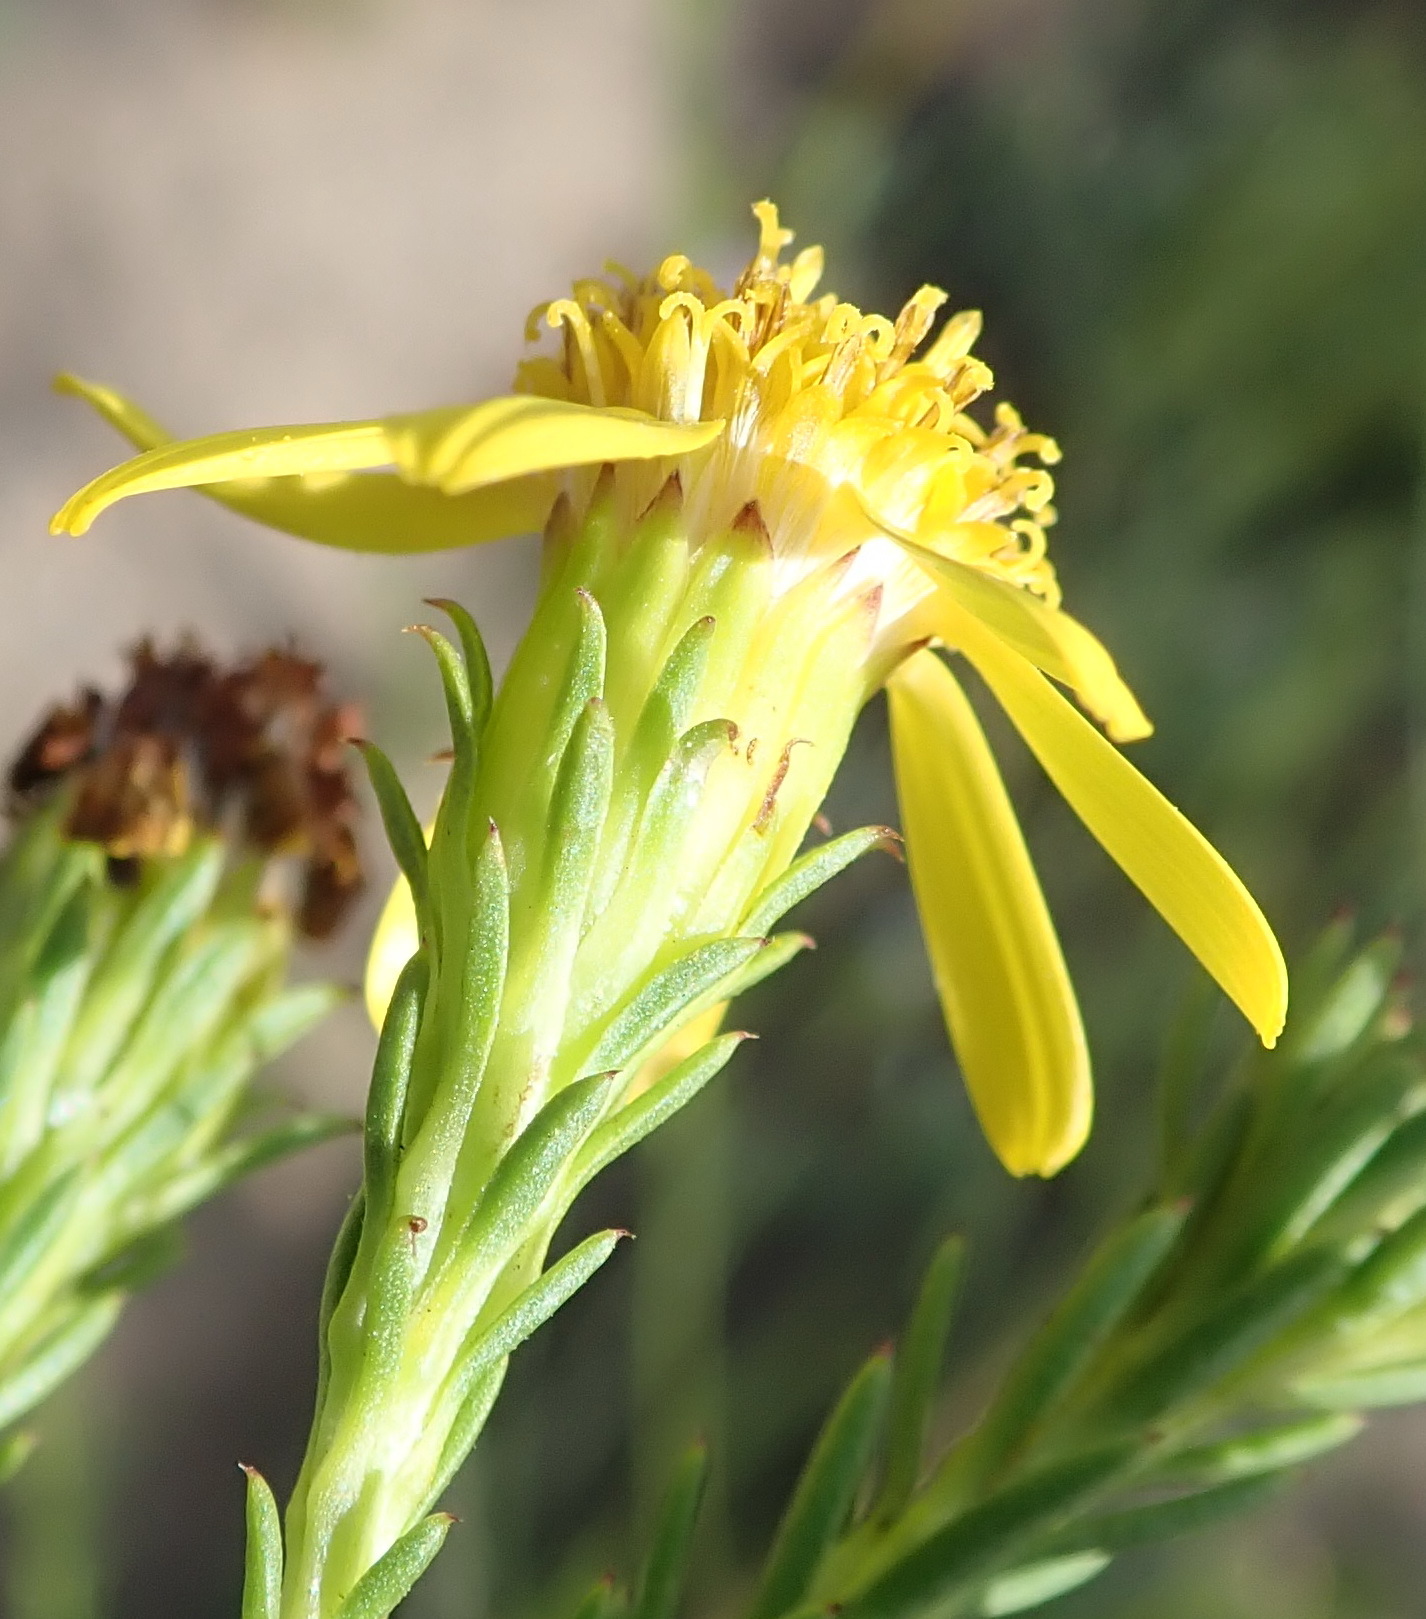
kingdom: Plantae
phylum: Tracheophyta
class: Magnoliopsida
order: Asterales
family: Asteraceae
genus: Senecio
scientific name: Senecio pinifolius
